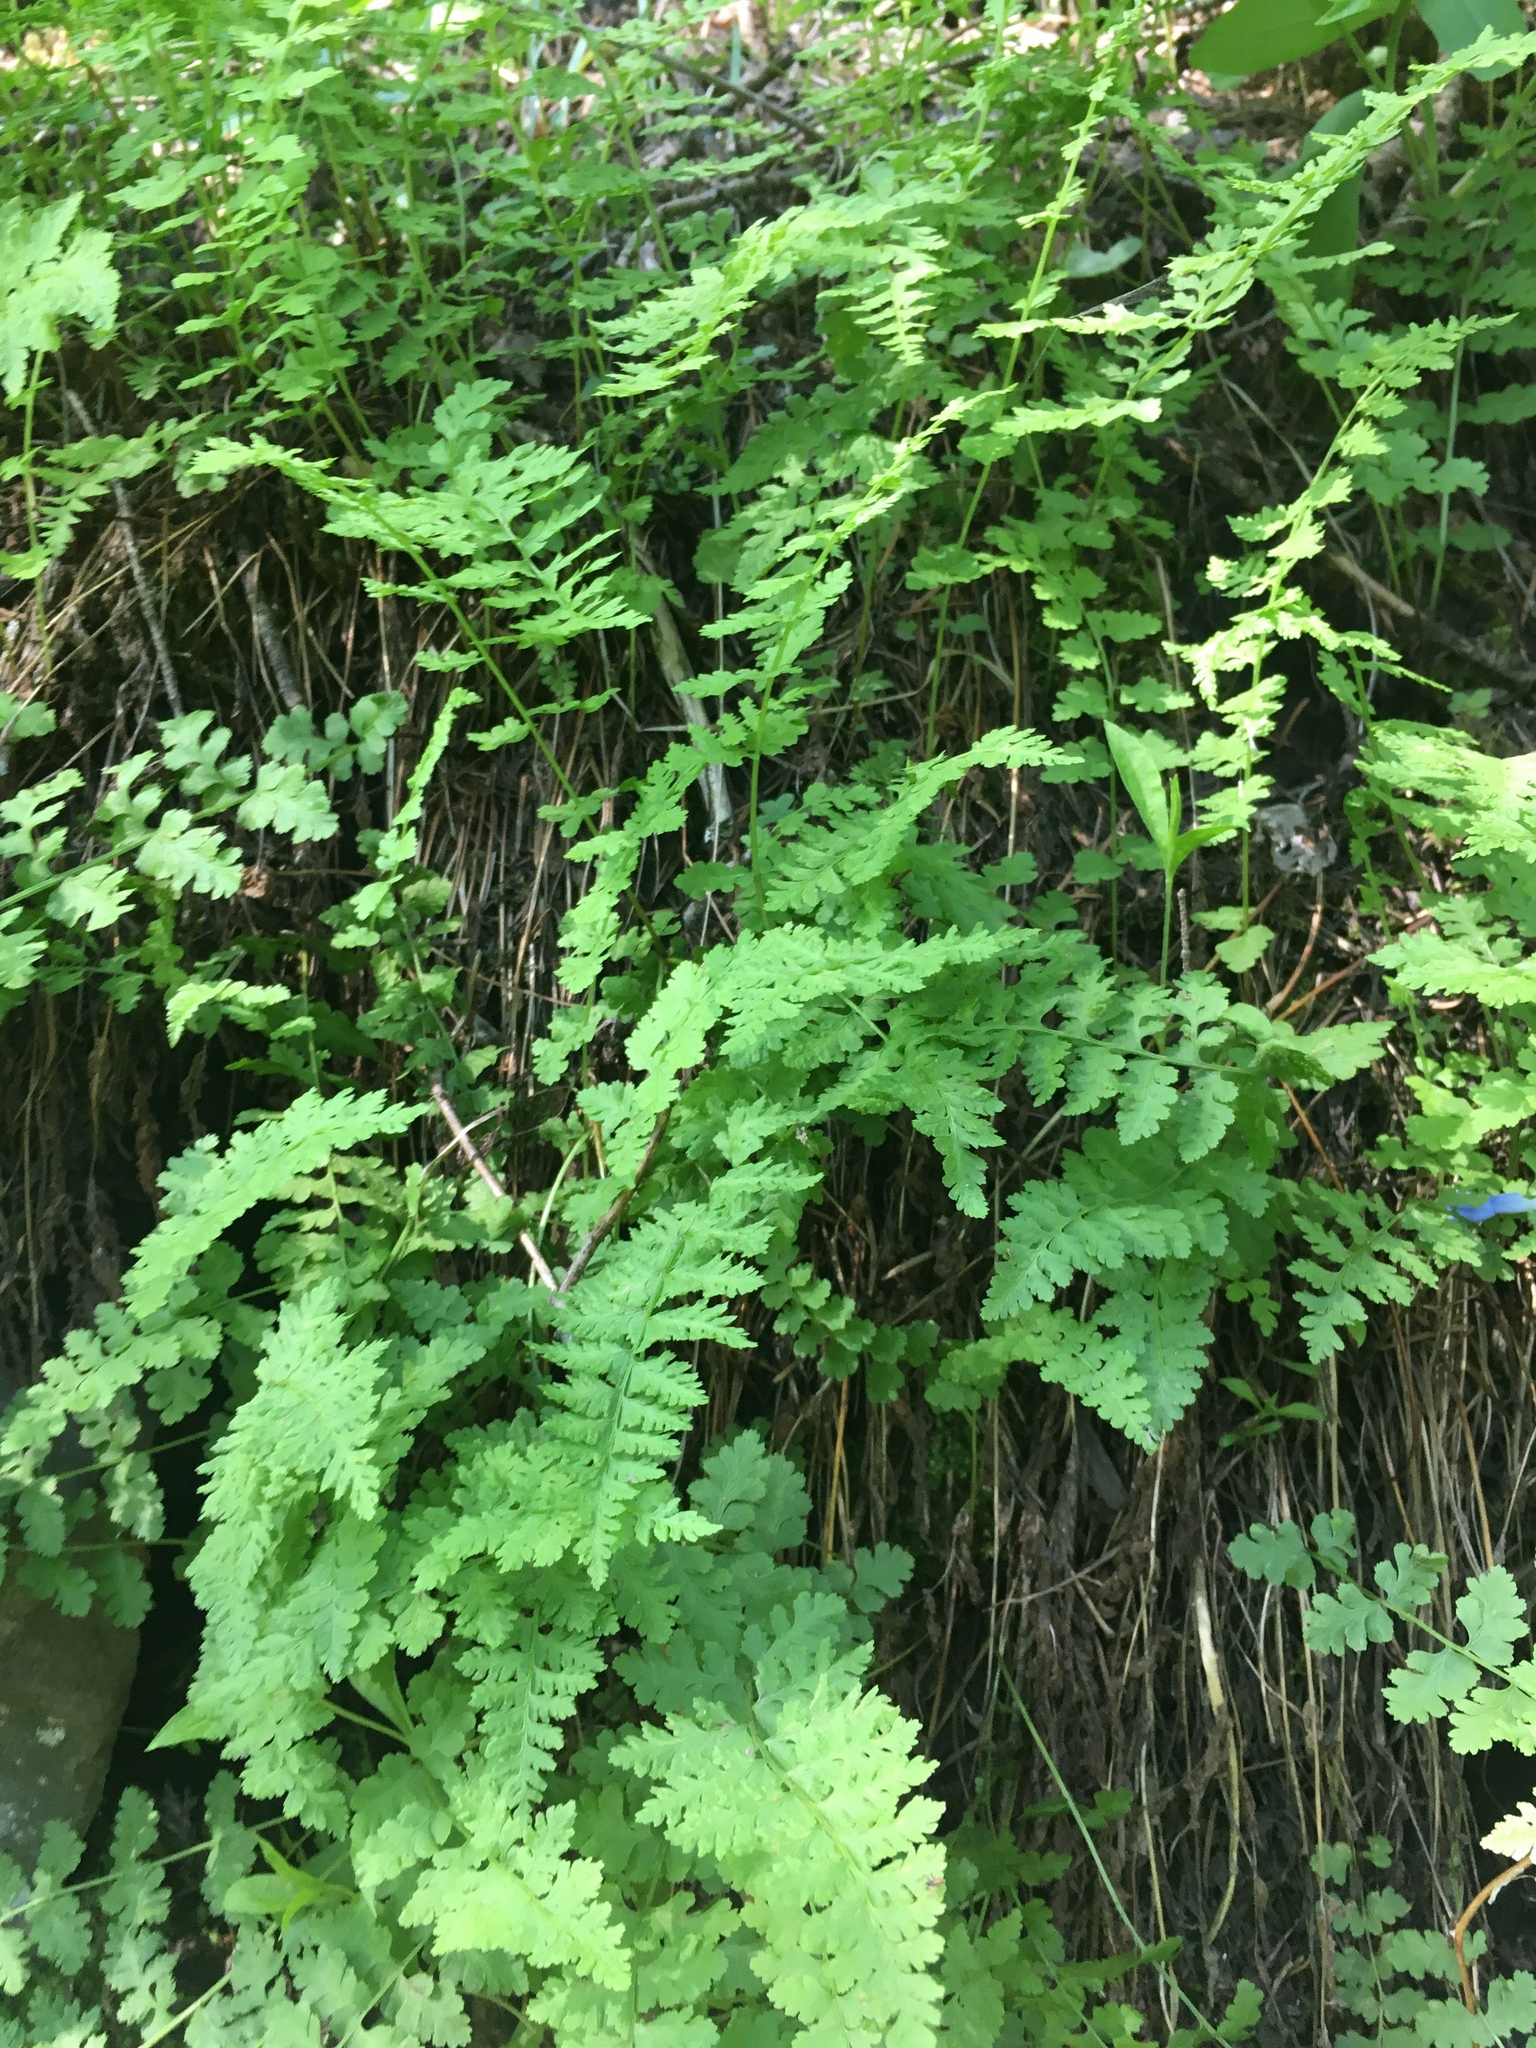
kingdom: Plantae
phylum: Tracheophyta
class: Polypodiopsida
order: Polypodiales
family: Cystopteridaceae
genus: Cystopteris
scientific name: Cystopteris fragilis
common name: Brittle bladder fern
